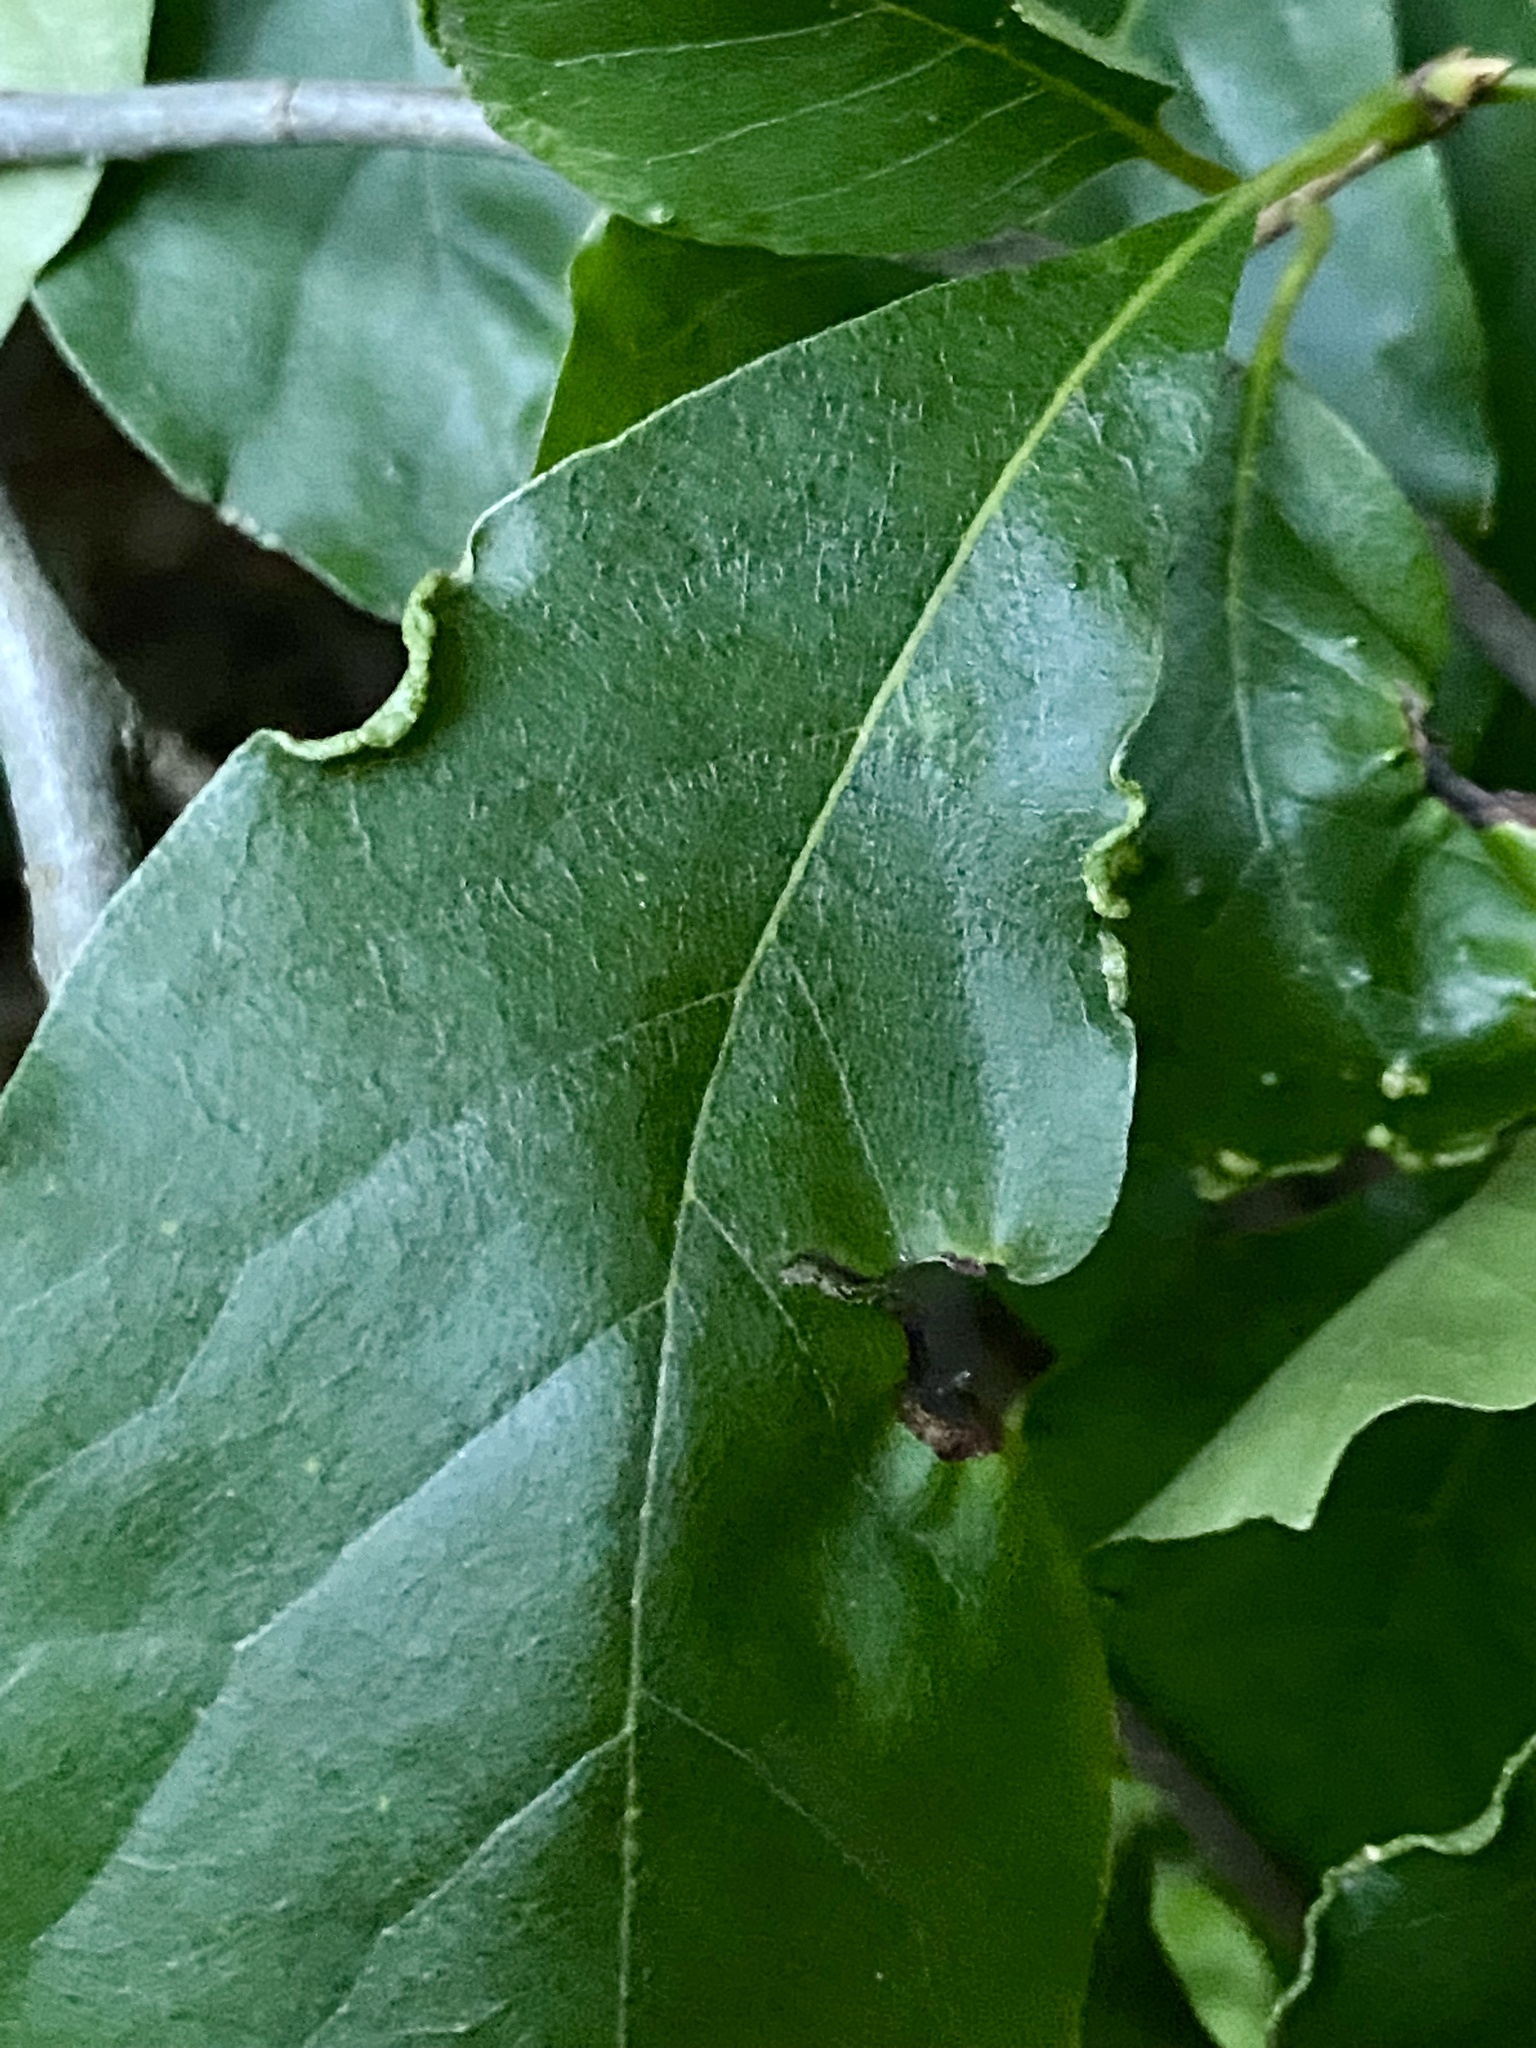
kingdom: Animalia
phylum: Arthropoda
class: Arachnida
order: Trombidiformes
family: Eriophyidae
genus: Aceria
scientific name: Aceria
